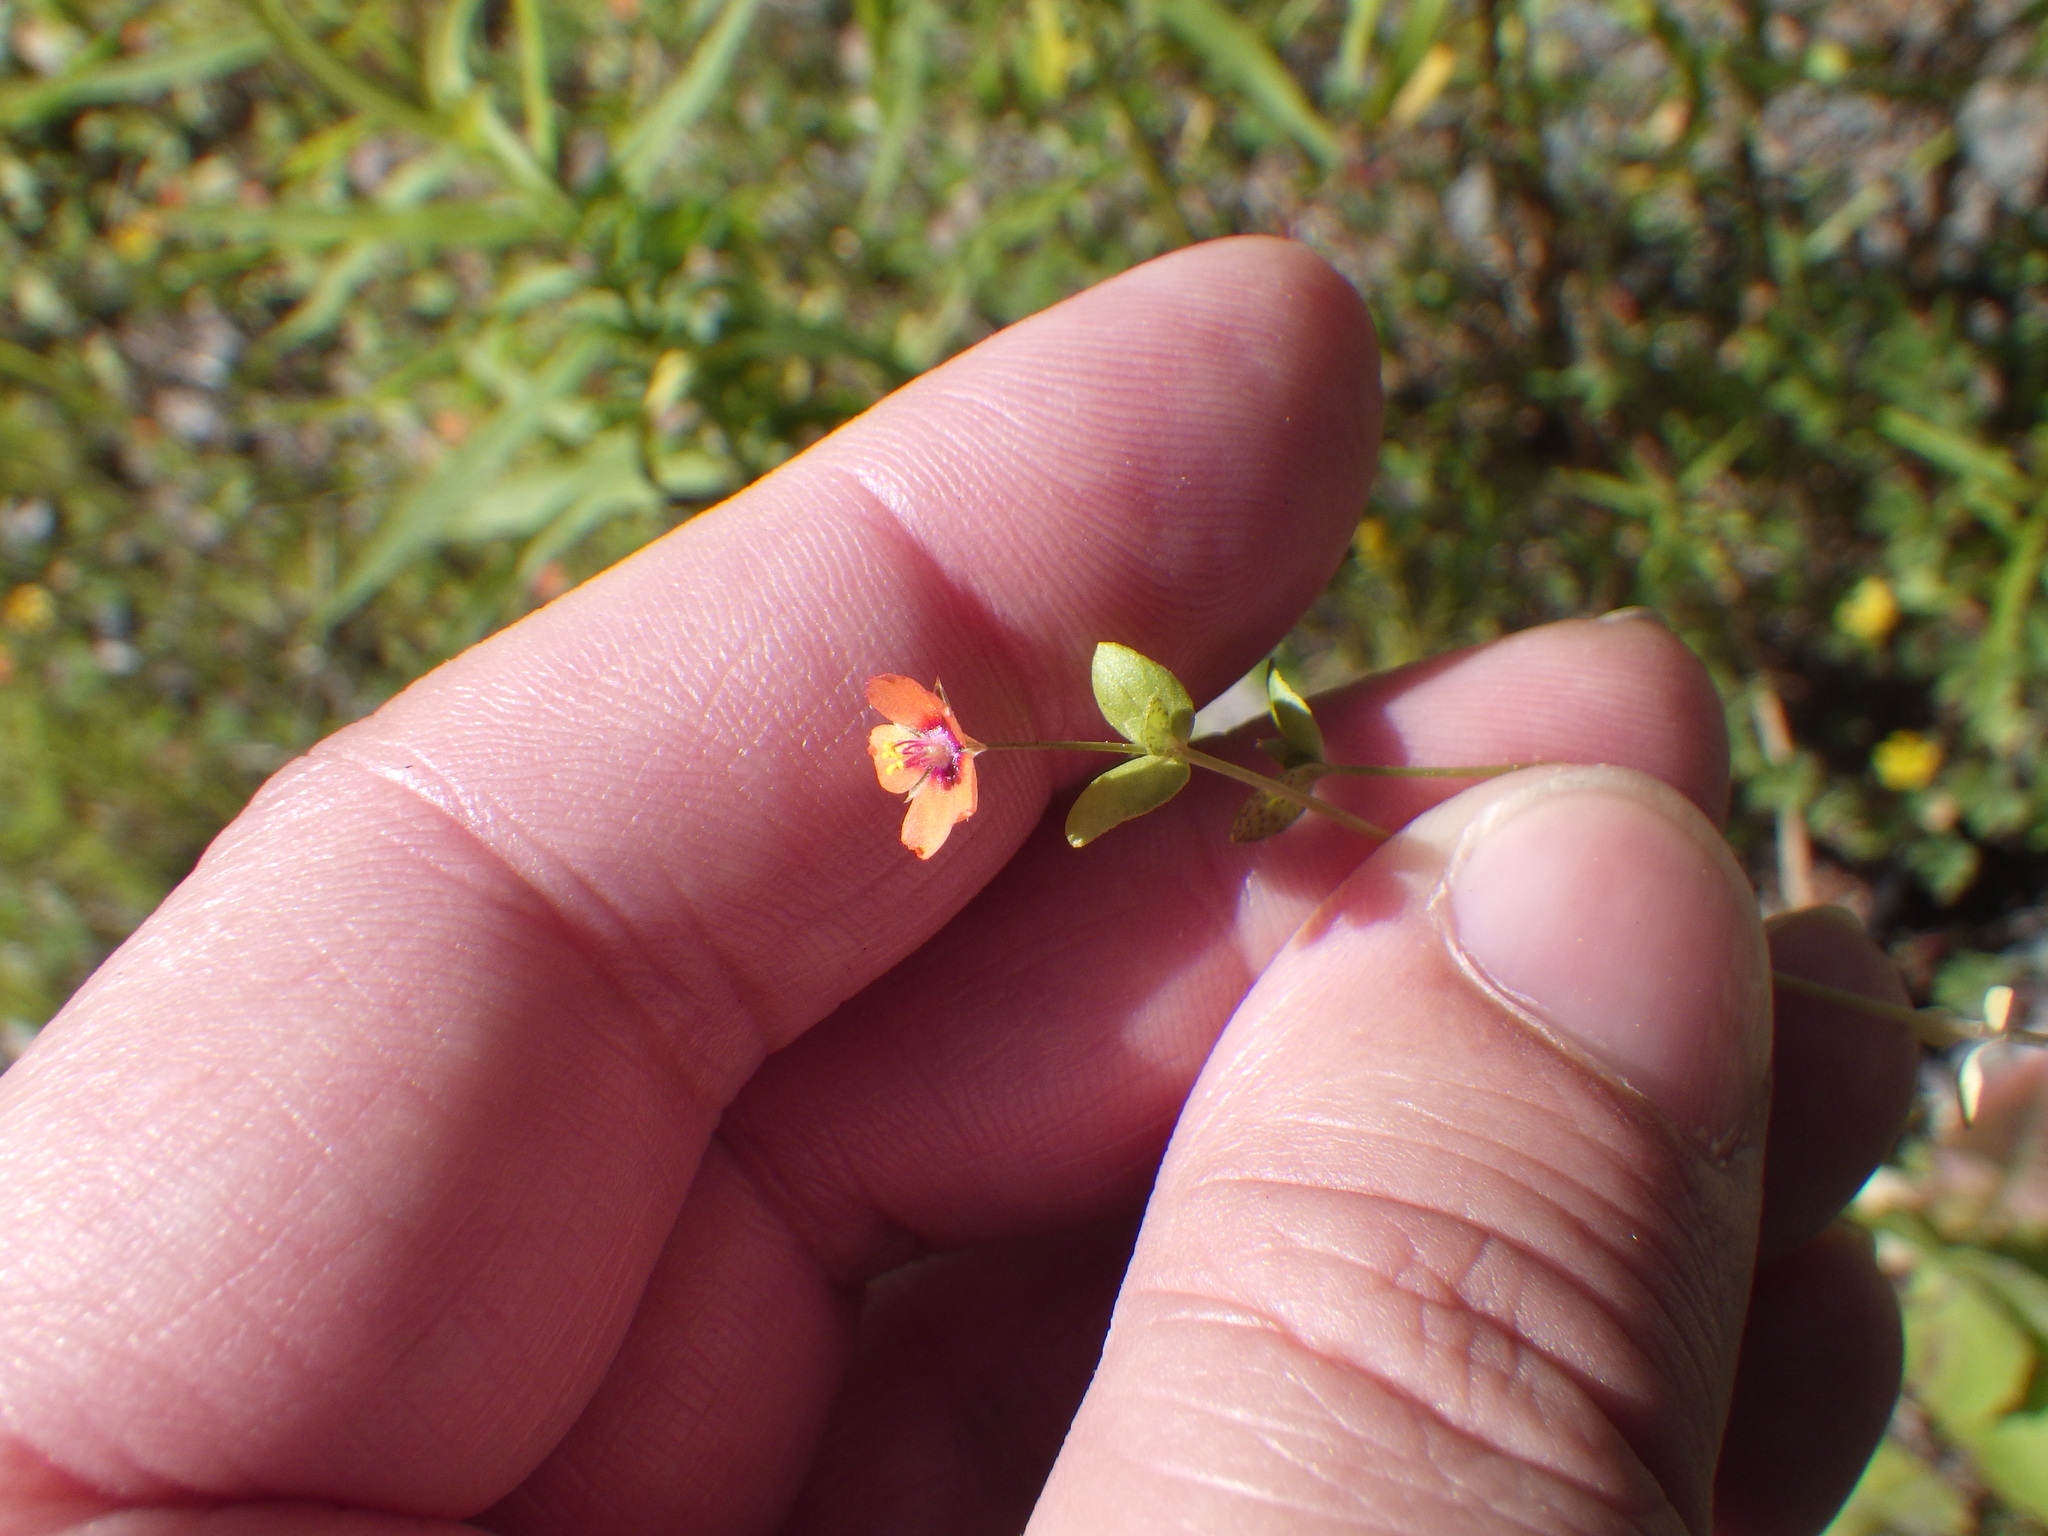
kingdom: Plantae
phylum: Tracheophyta
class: Magnoliopsida
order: Ericales
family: Primulaceae
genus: Lysimachia
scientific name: Lysimachia arvensis
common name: Scarlet pimpernel
